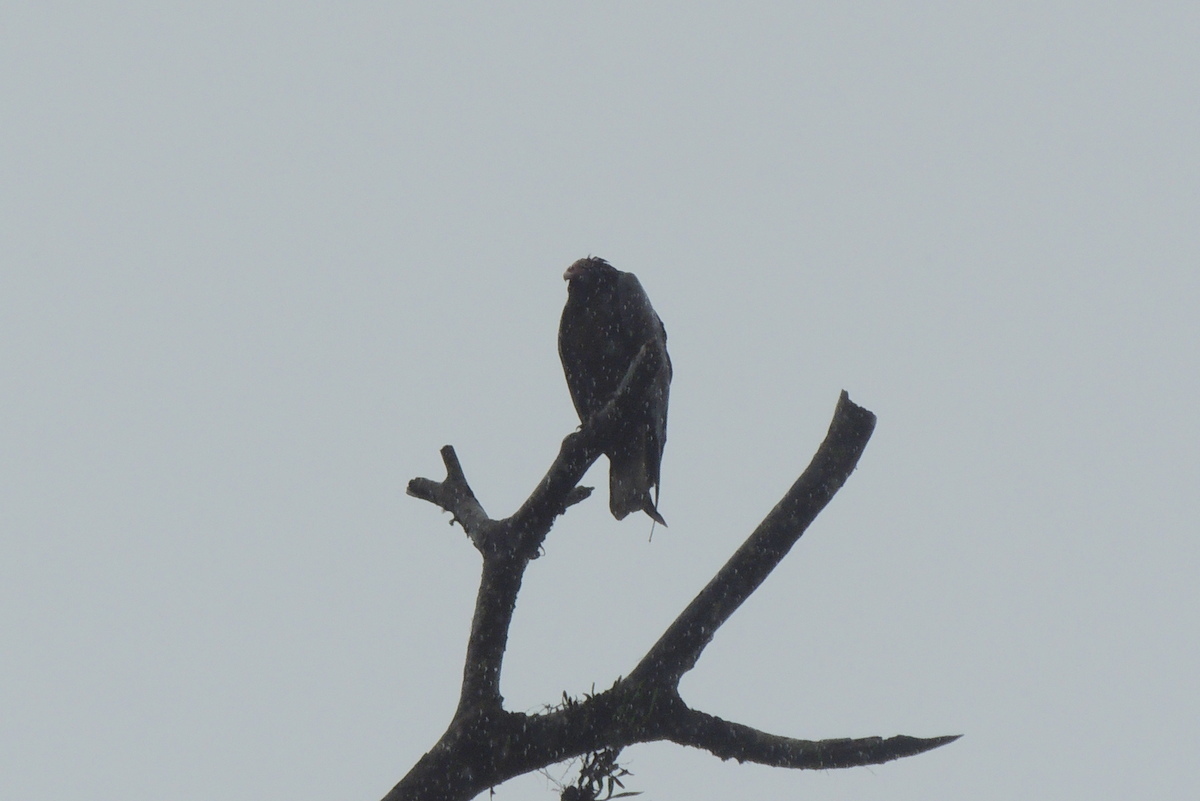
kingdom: Animalia
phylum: Chordata
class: Aves
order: Accipitriformes
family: Cathartidae
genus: Cathartes
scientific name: Cathartes aura
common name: Turkey vulture
